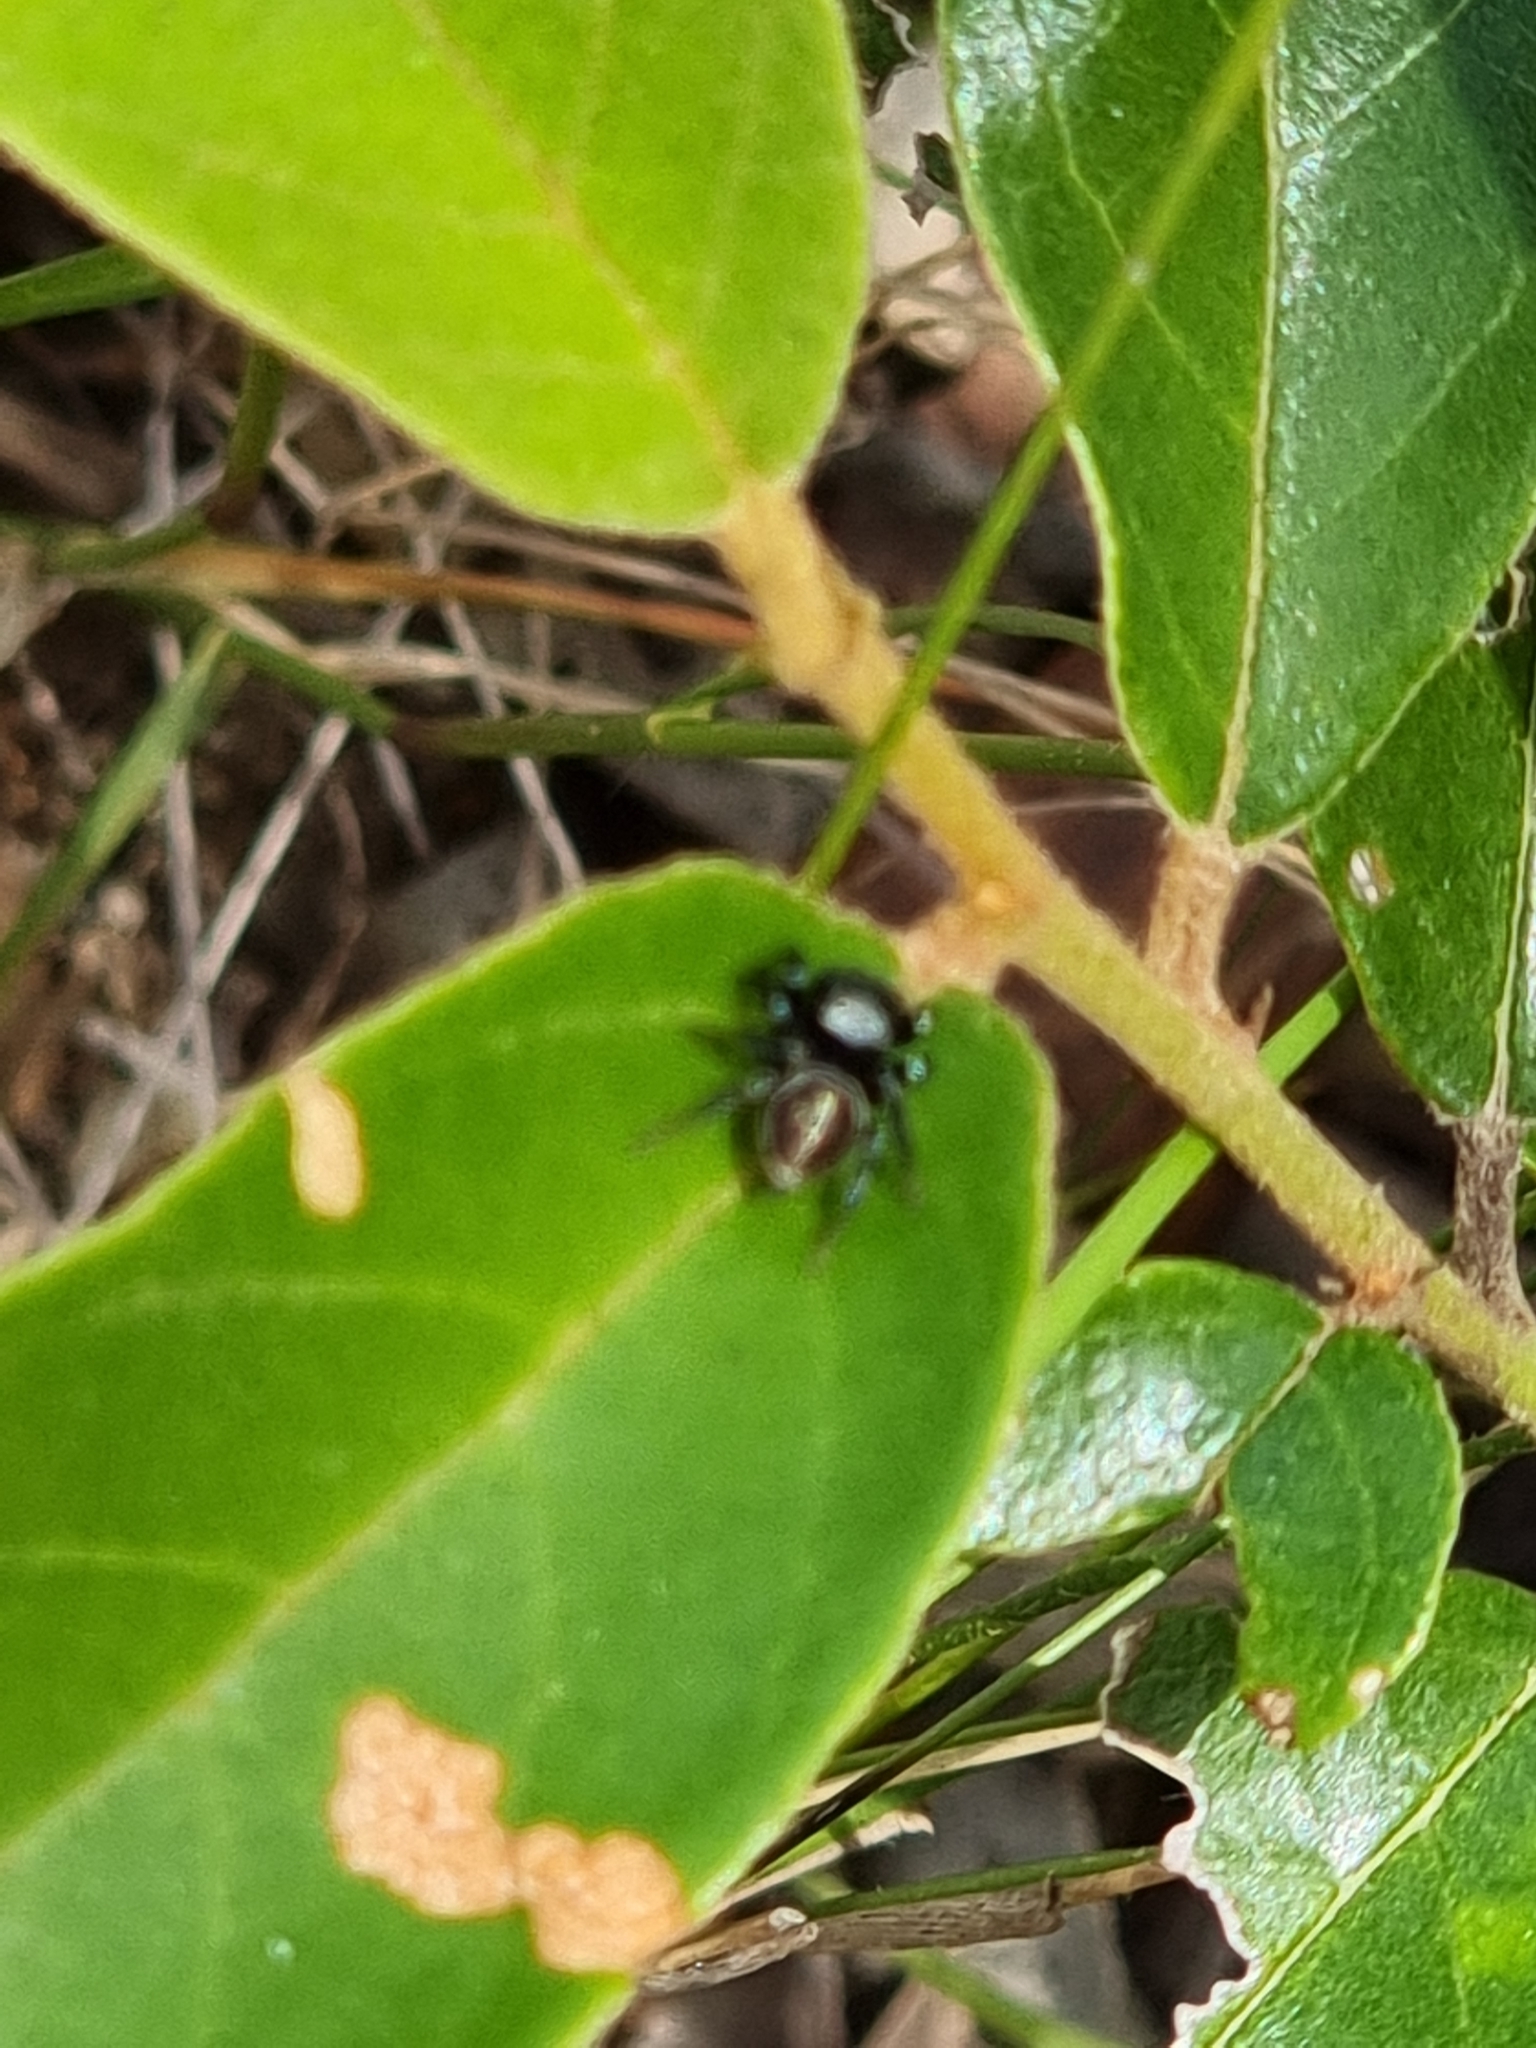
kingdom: Animalia
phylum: Arthropoda
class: Arachnida
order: Araneae
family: Salticidae
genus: Zenodorus
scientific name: Zenodorus orbiculatus
